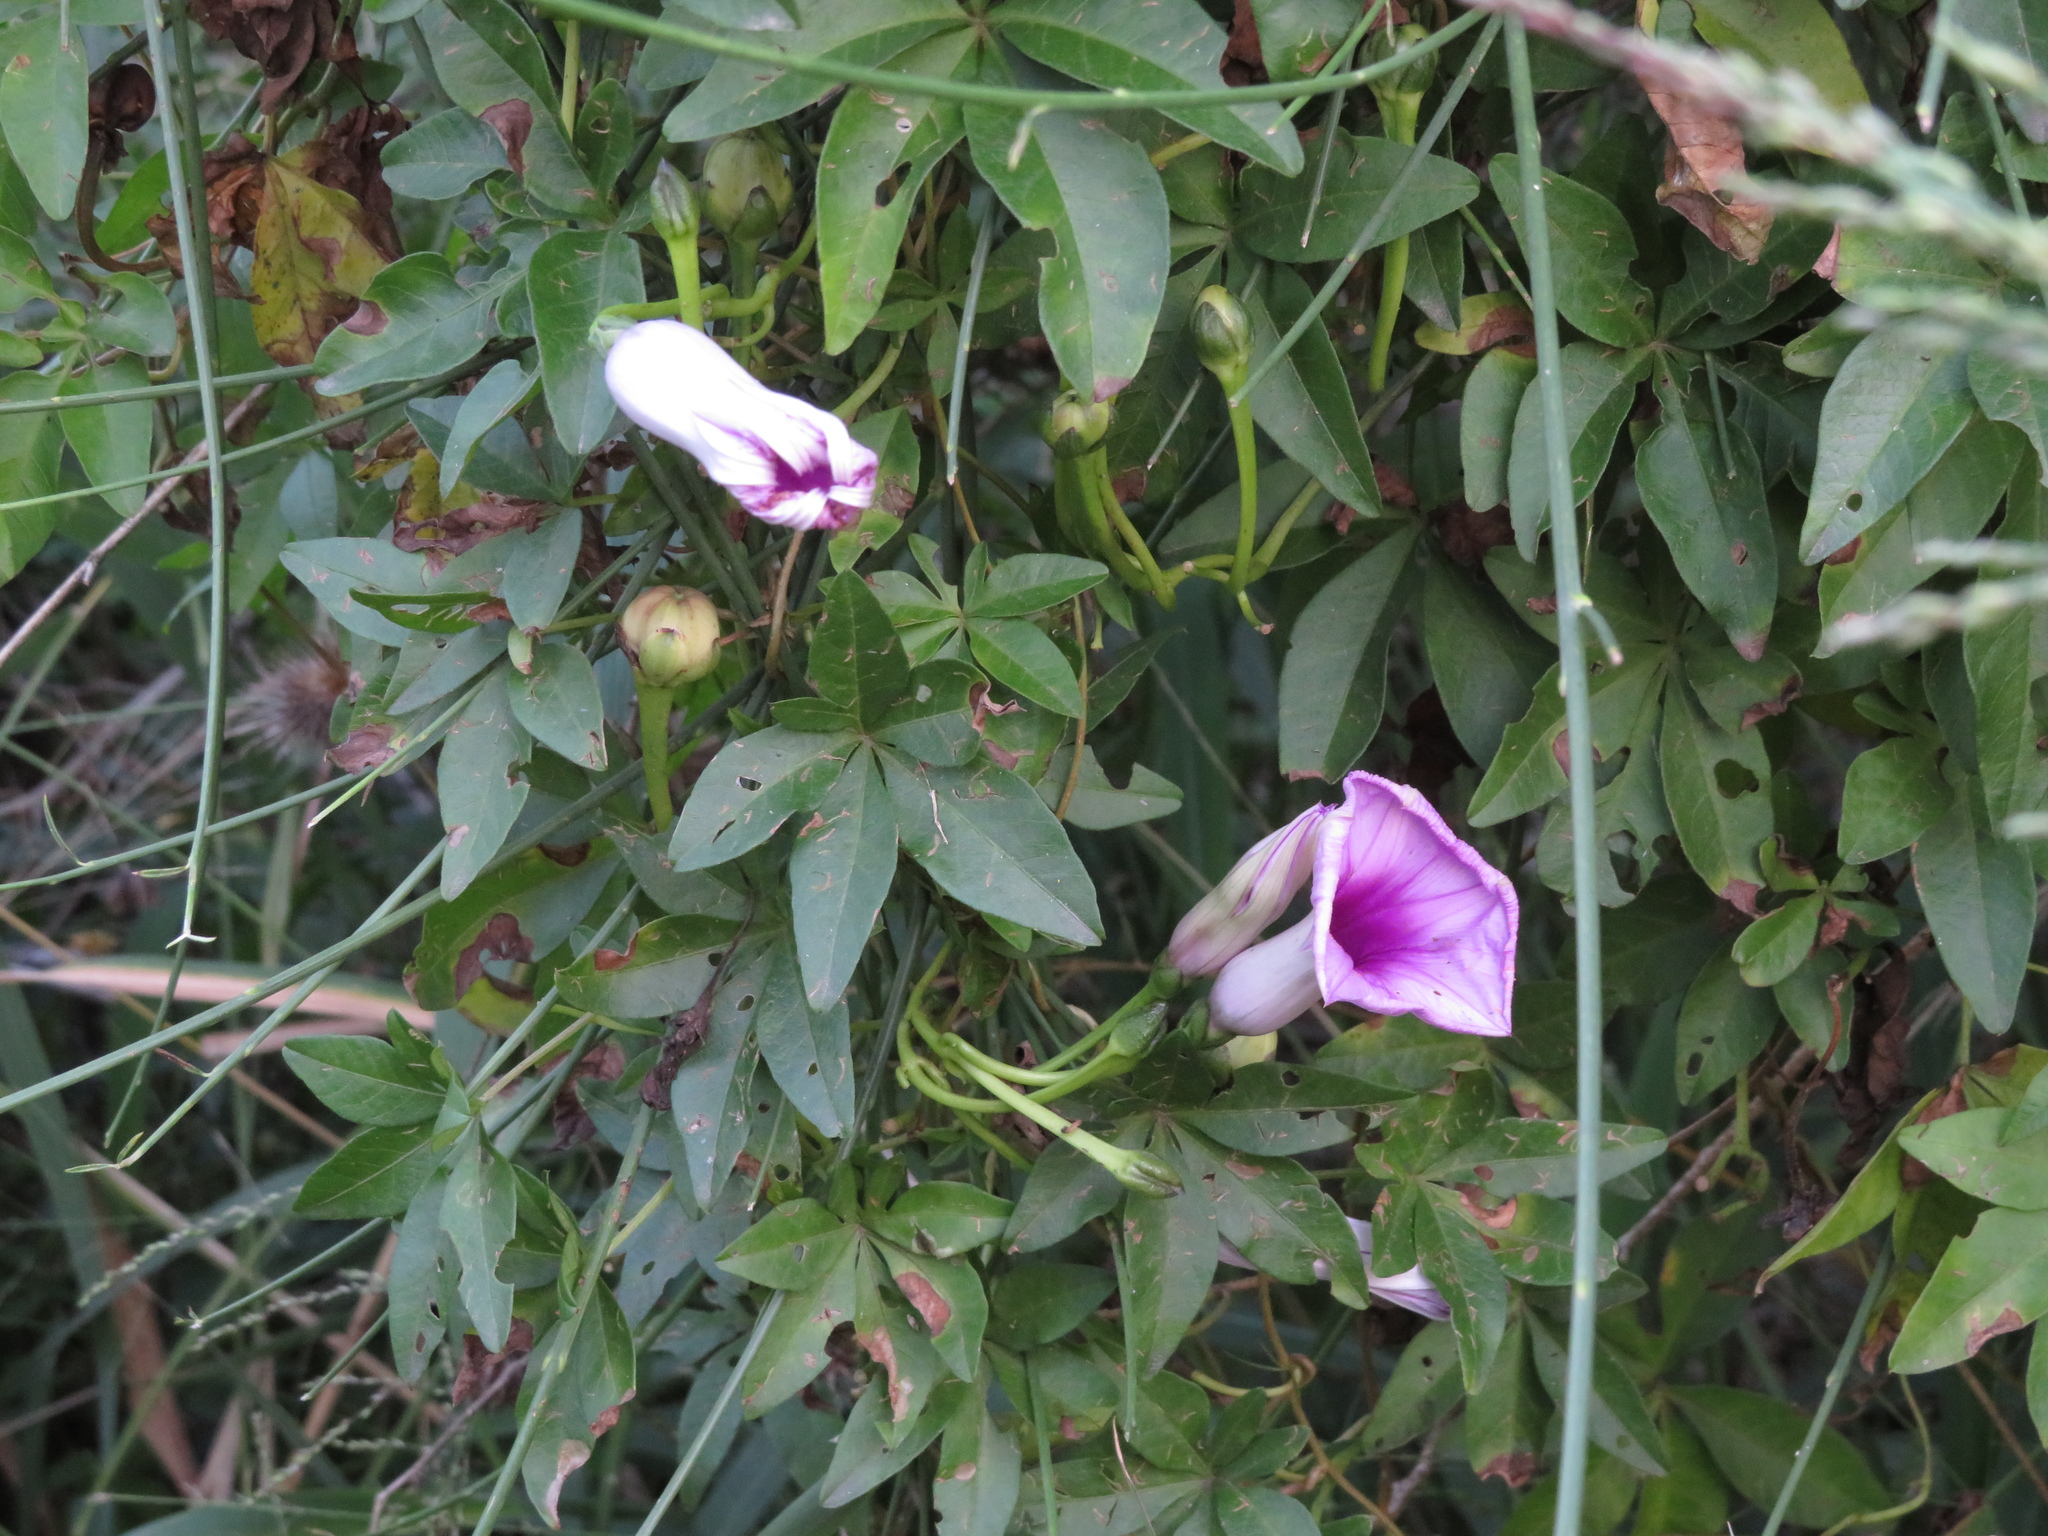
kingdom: Plantae
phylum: Tracheophyta
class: Magnoliopsida
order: Solanales
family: Convolvulaceae
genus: Ipomoea
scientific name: Ipomoea cairica
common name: Mile a minute vine
